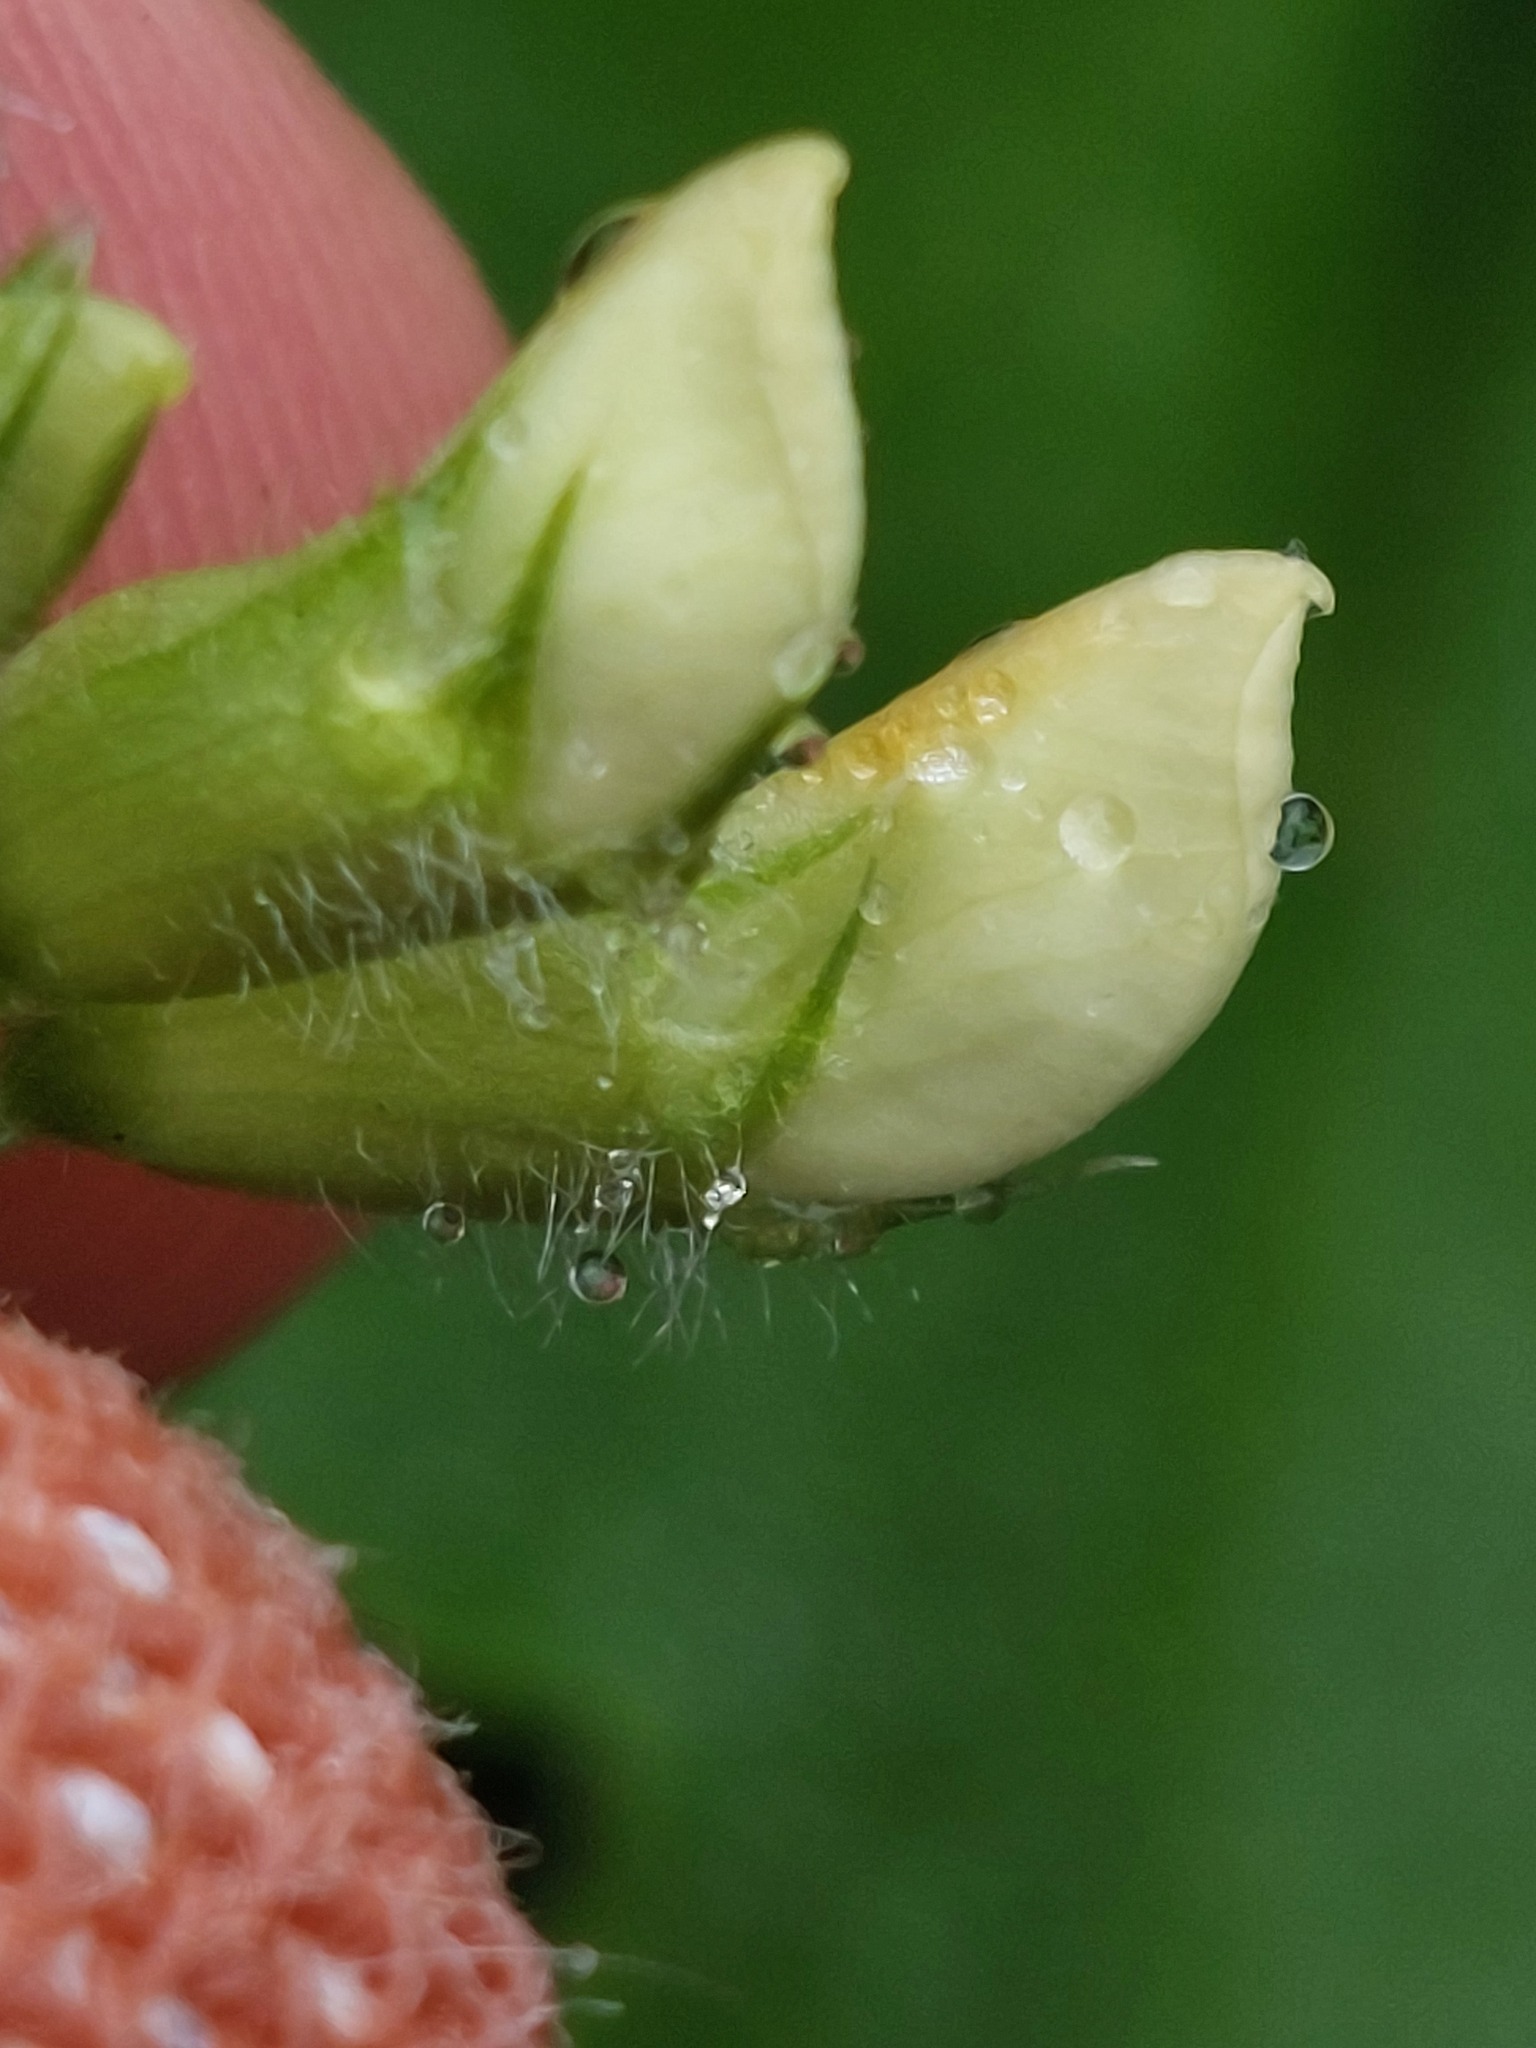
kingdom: Plantae
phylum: Tracheophyta
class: Magnoliopsida
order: Fabales
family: Fabaceae
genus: Vicia
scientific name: Vicia sepium
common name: Bush vetch
